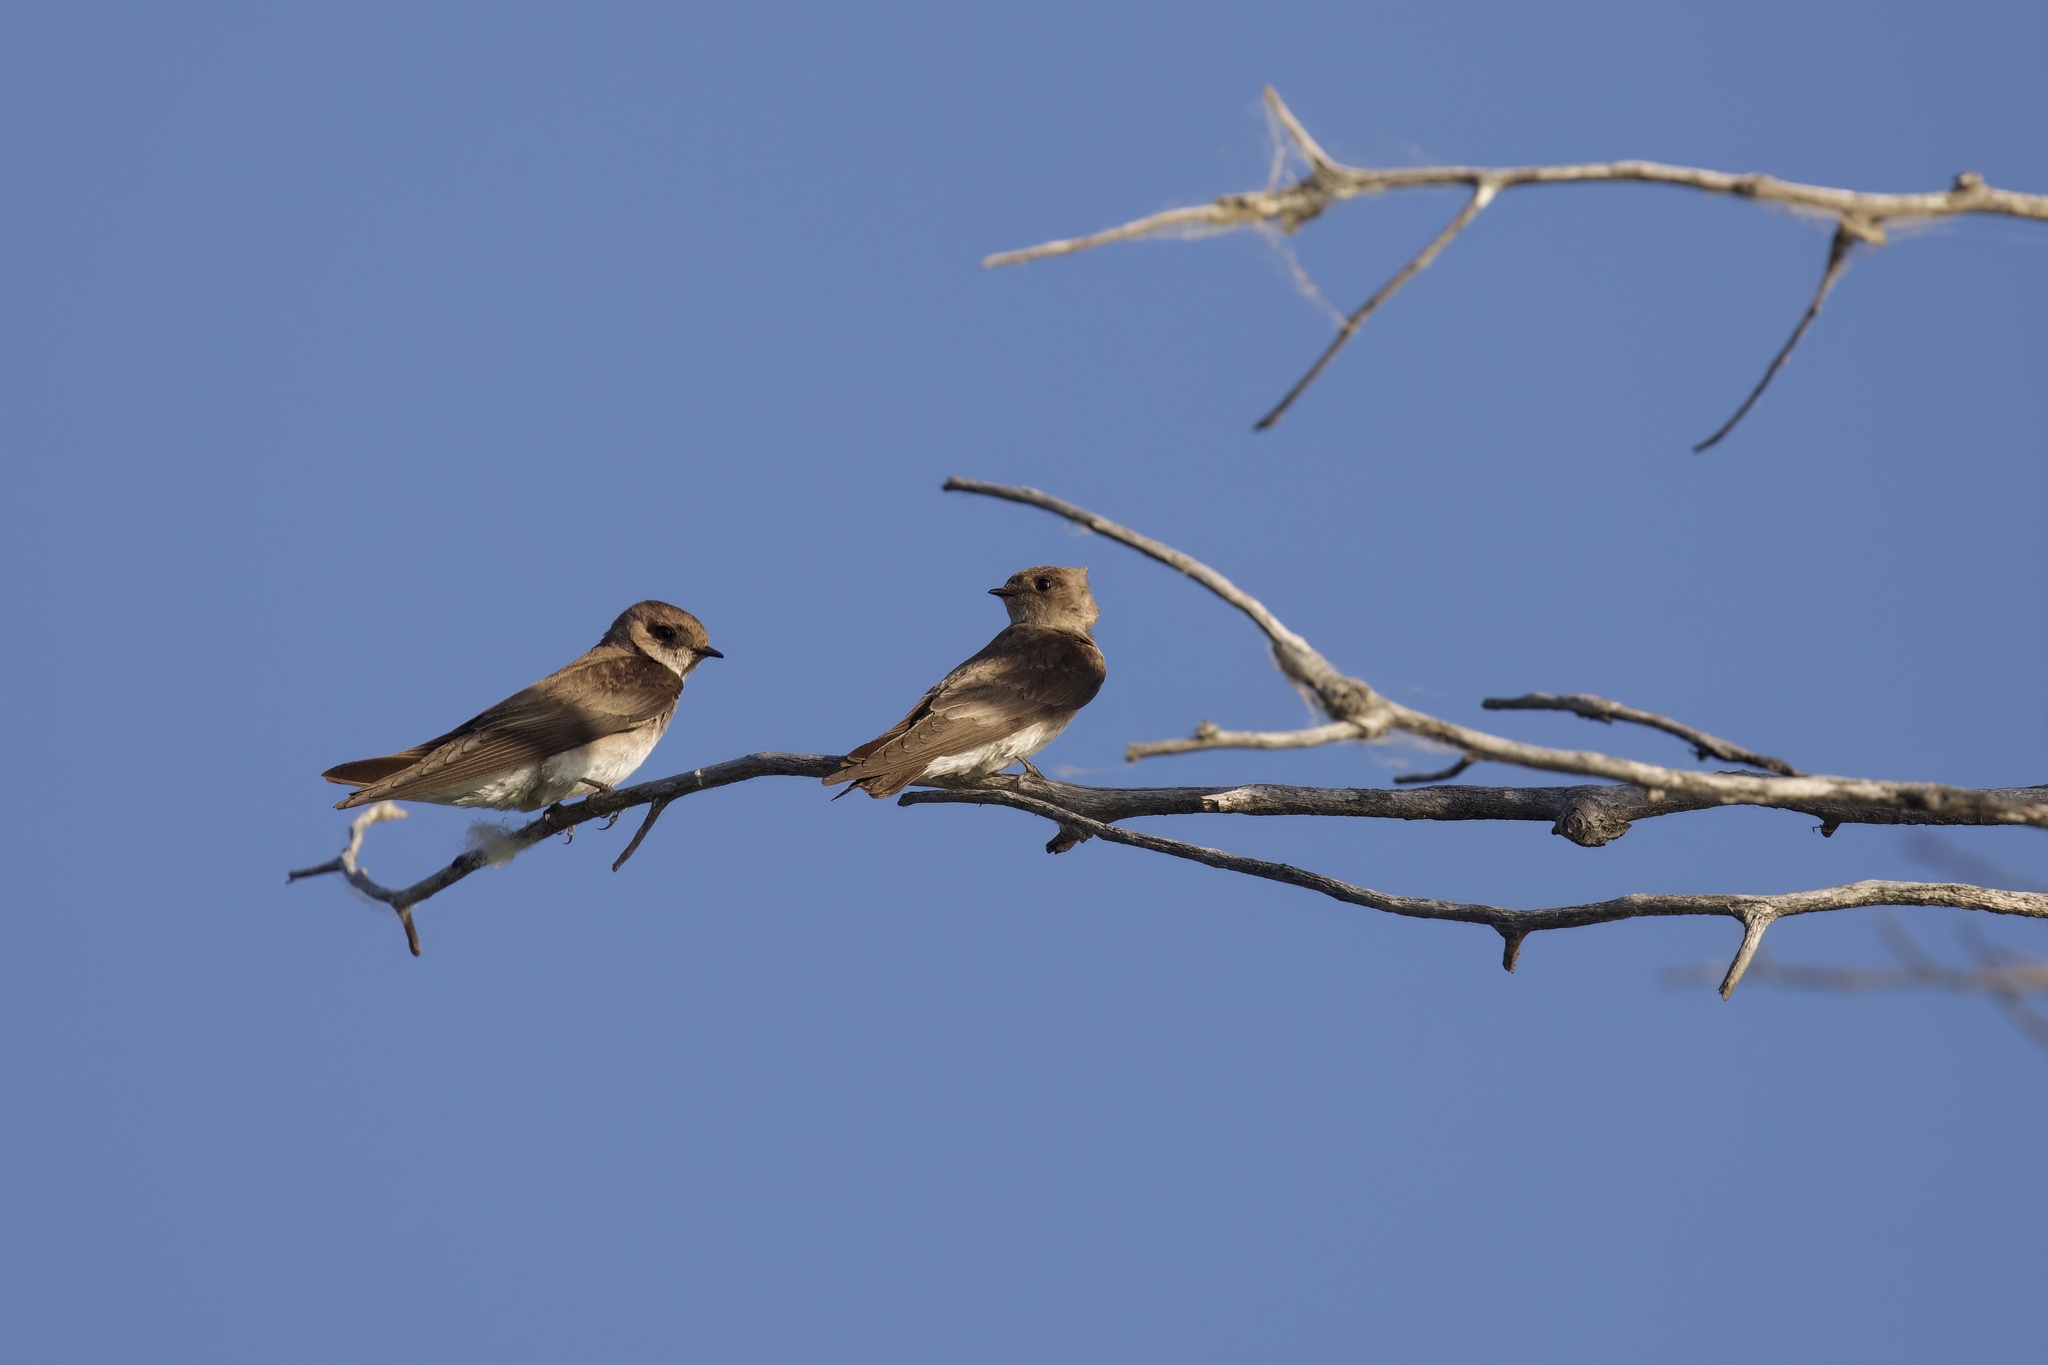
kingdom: Animalia
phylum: Chordata
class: Aves
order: Passeriformes
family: Hirundinidae
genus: Stelgidopteryx
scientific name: Stelgidopteryx serripennis
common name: Northern rough-winged swallow
